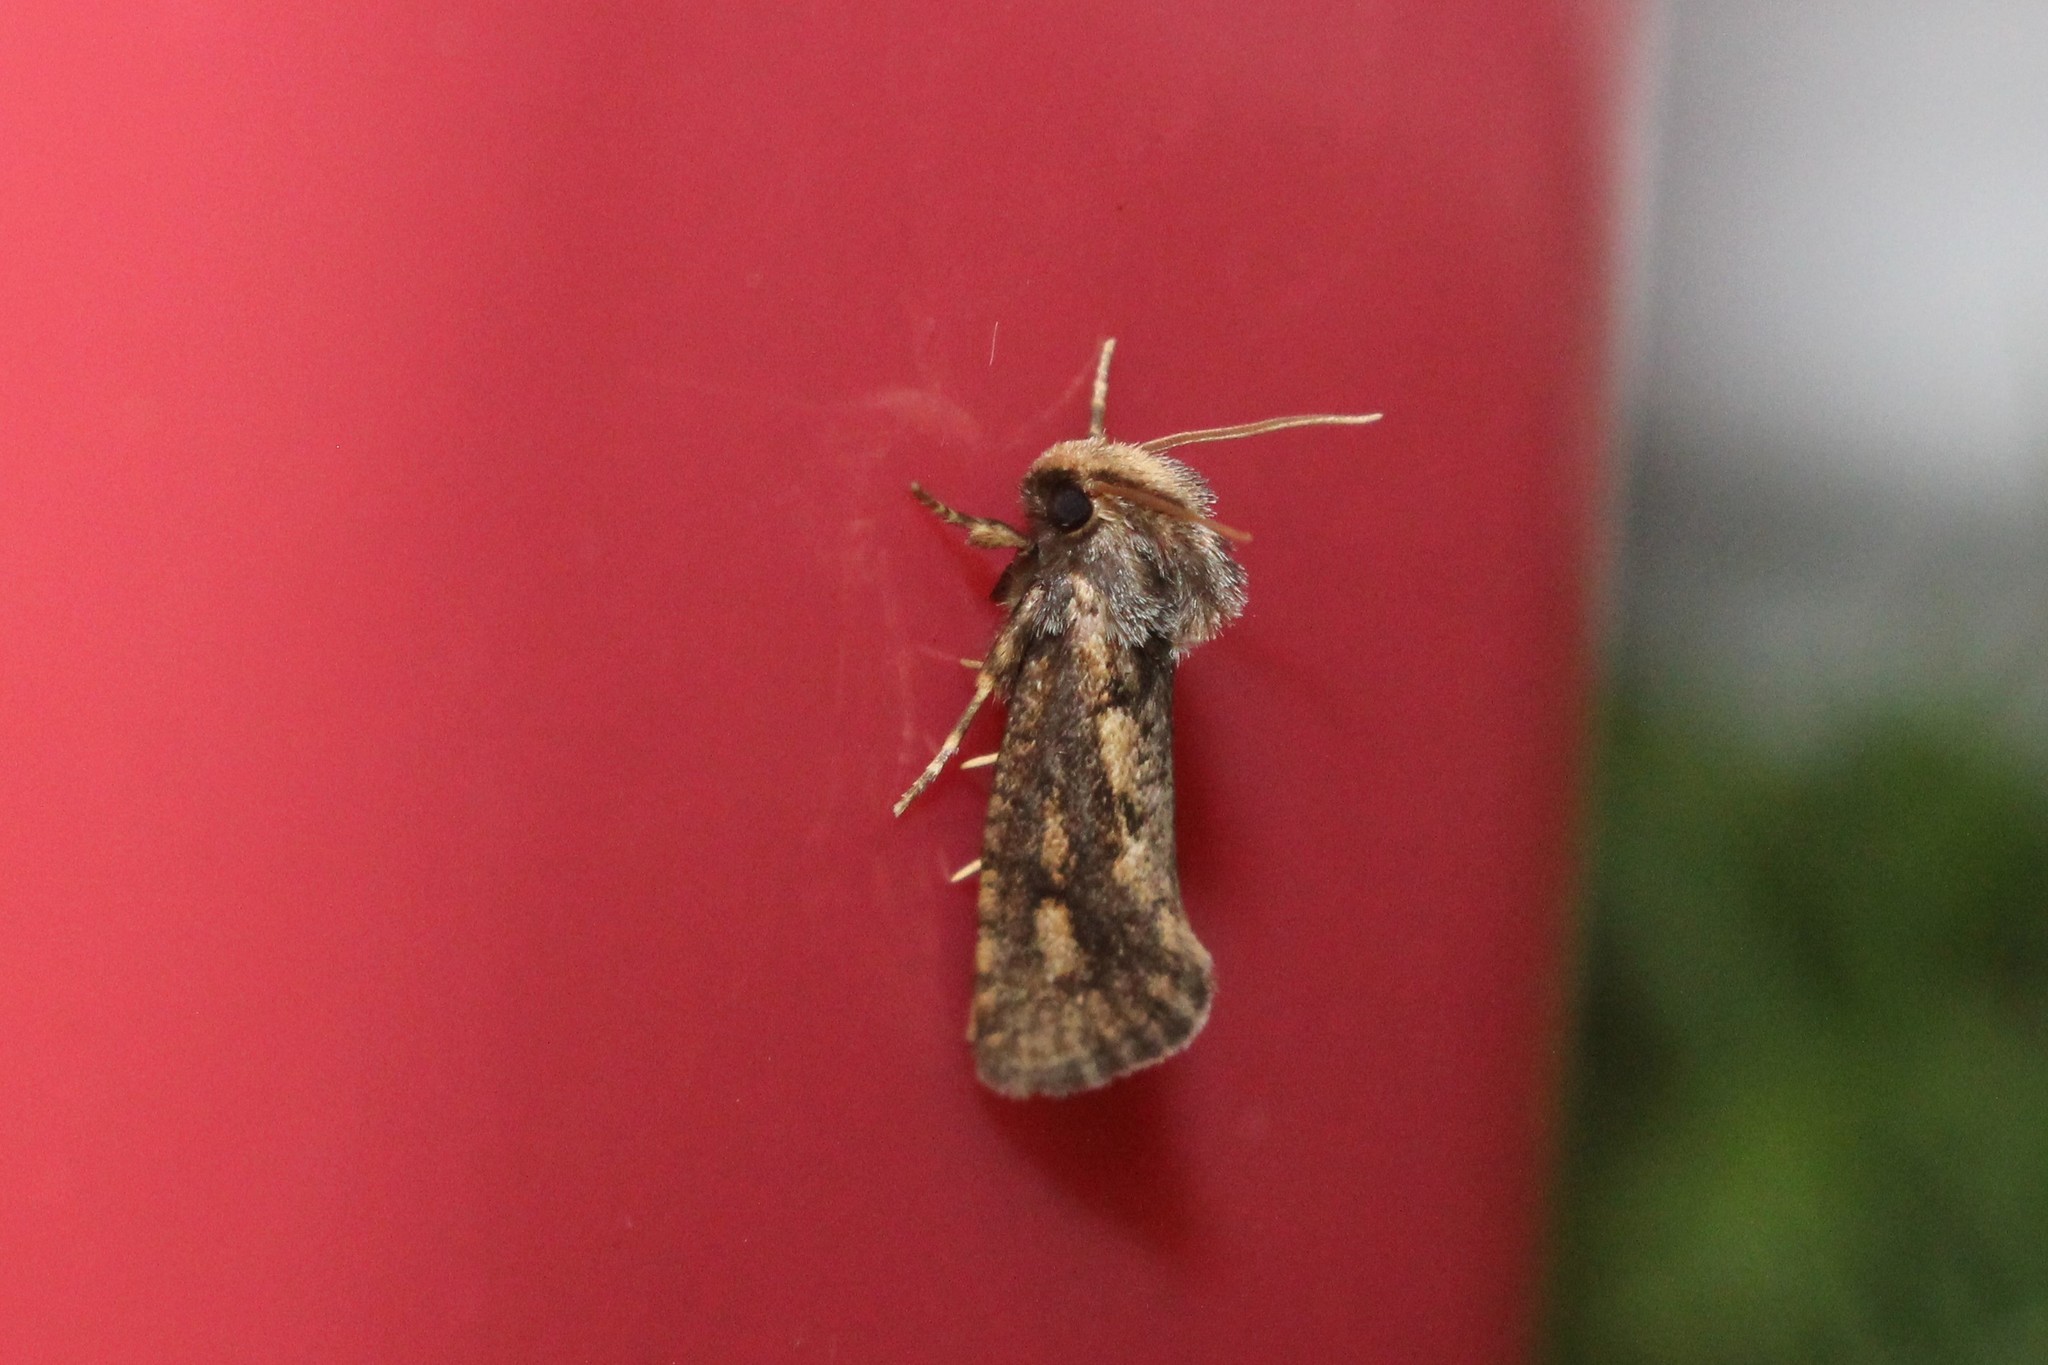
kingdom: Animalia
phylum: Arthropoda
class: Insecta
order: Lepidoptera
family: Tineidae
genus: Acrolophus
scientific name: Acrolophus popeanella
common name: Clemens' grass tubeworm moth
